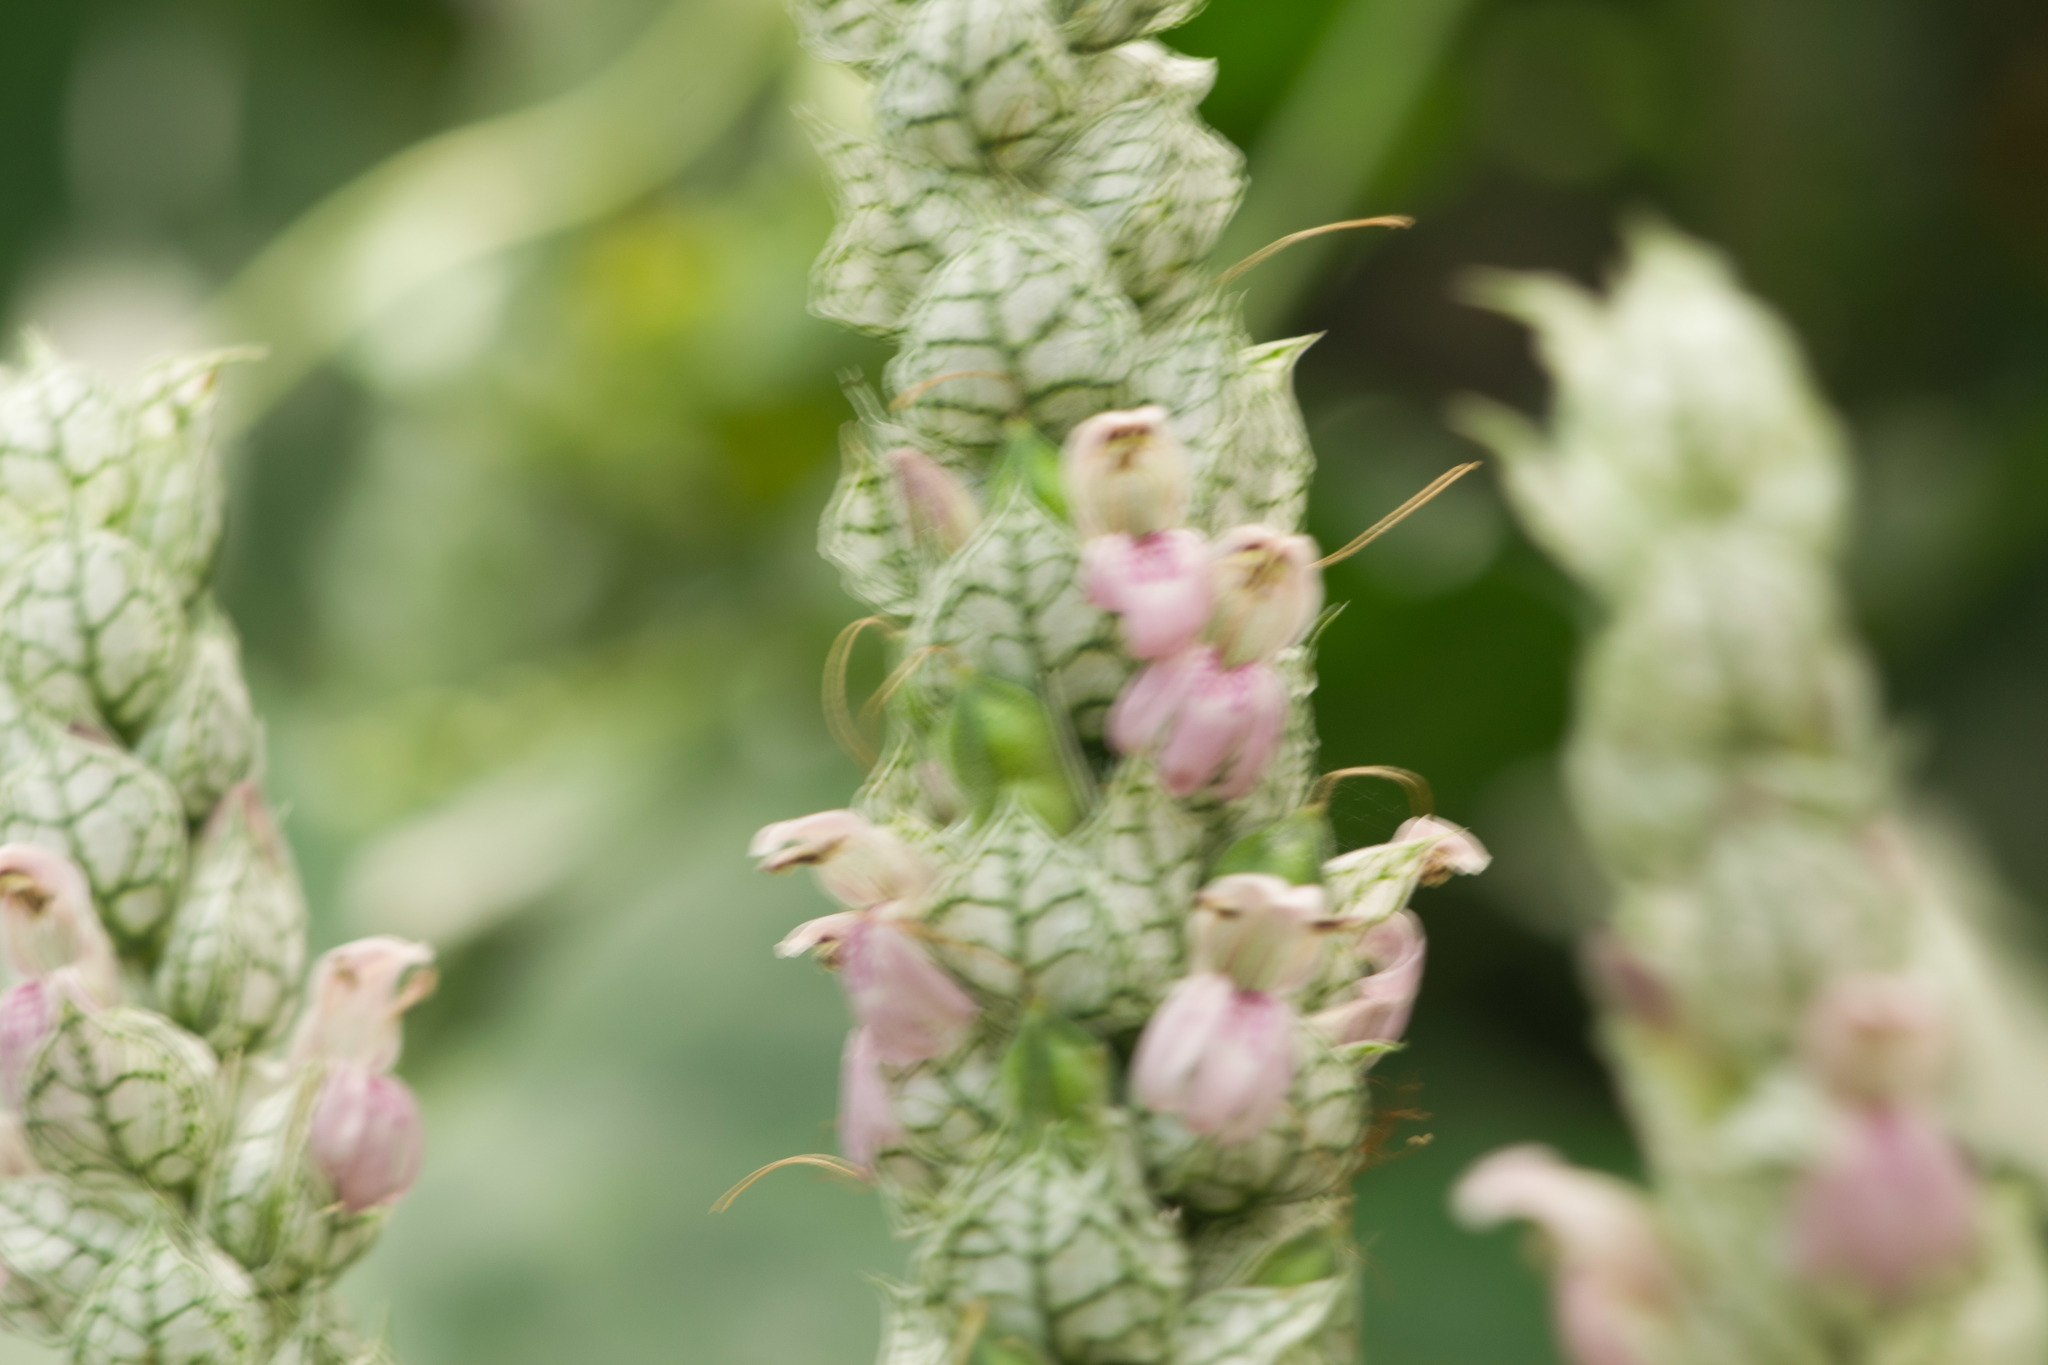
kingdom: Plantae
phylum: Tracheophyta
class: Magnoliopsida
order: Lamiales
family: Acanthaceae
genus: Justicia
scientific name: Justicia betonica
